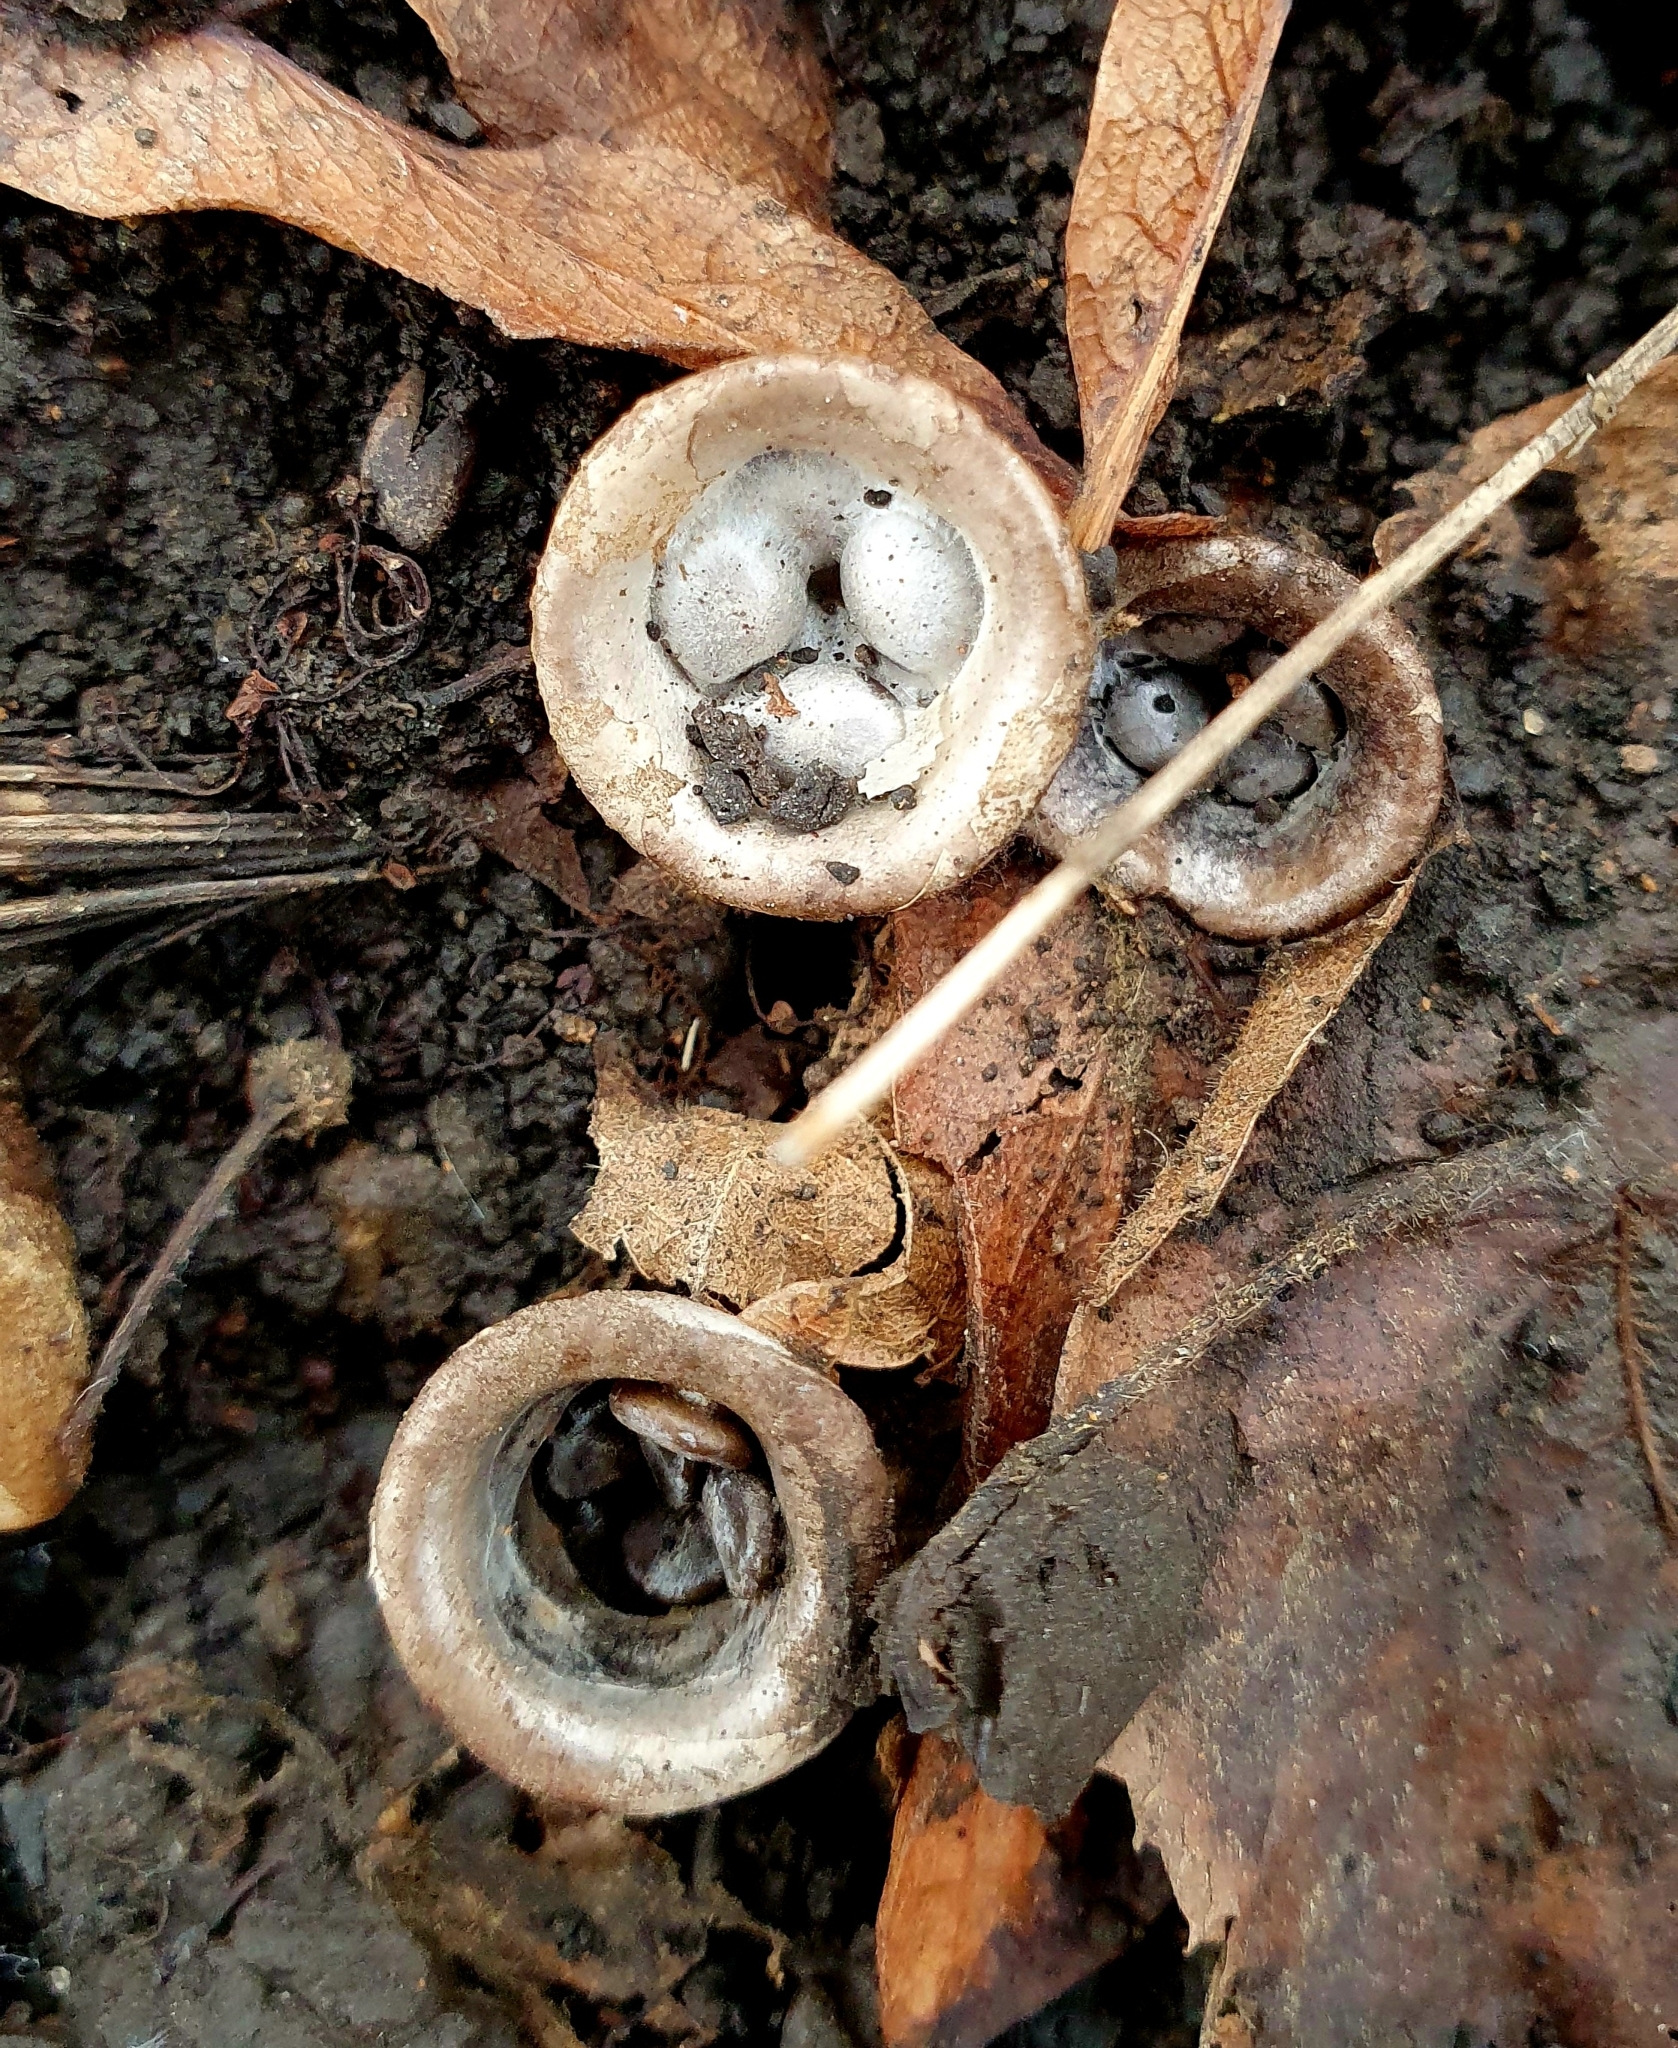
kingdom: Fungi
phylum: Basidiomycota
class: Agaricomycetes
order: Agaricales
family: Agaricaceae
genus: Cyathus
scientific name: Cyathus olla
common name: Field bird's nest
